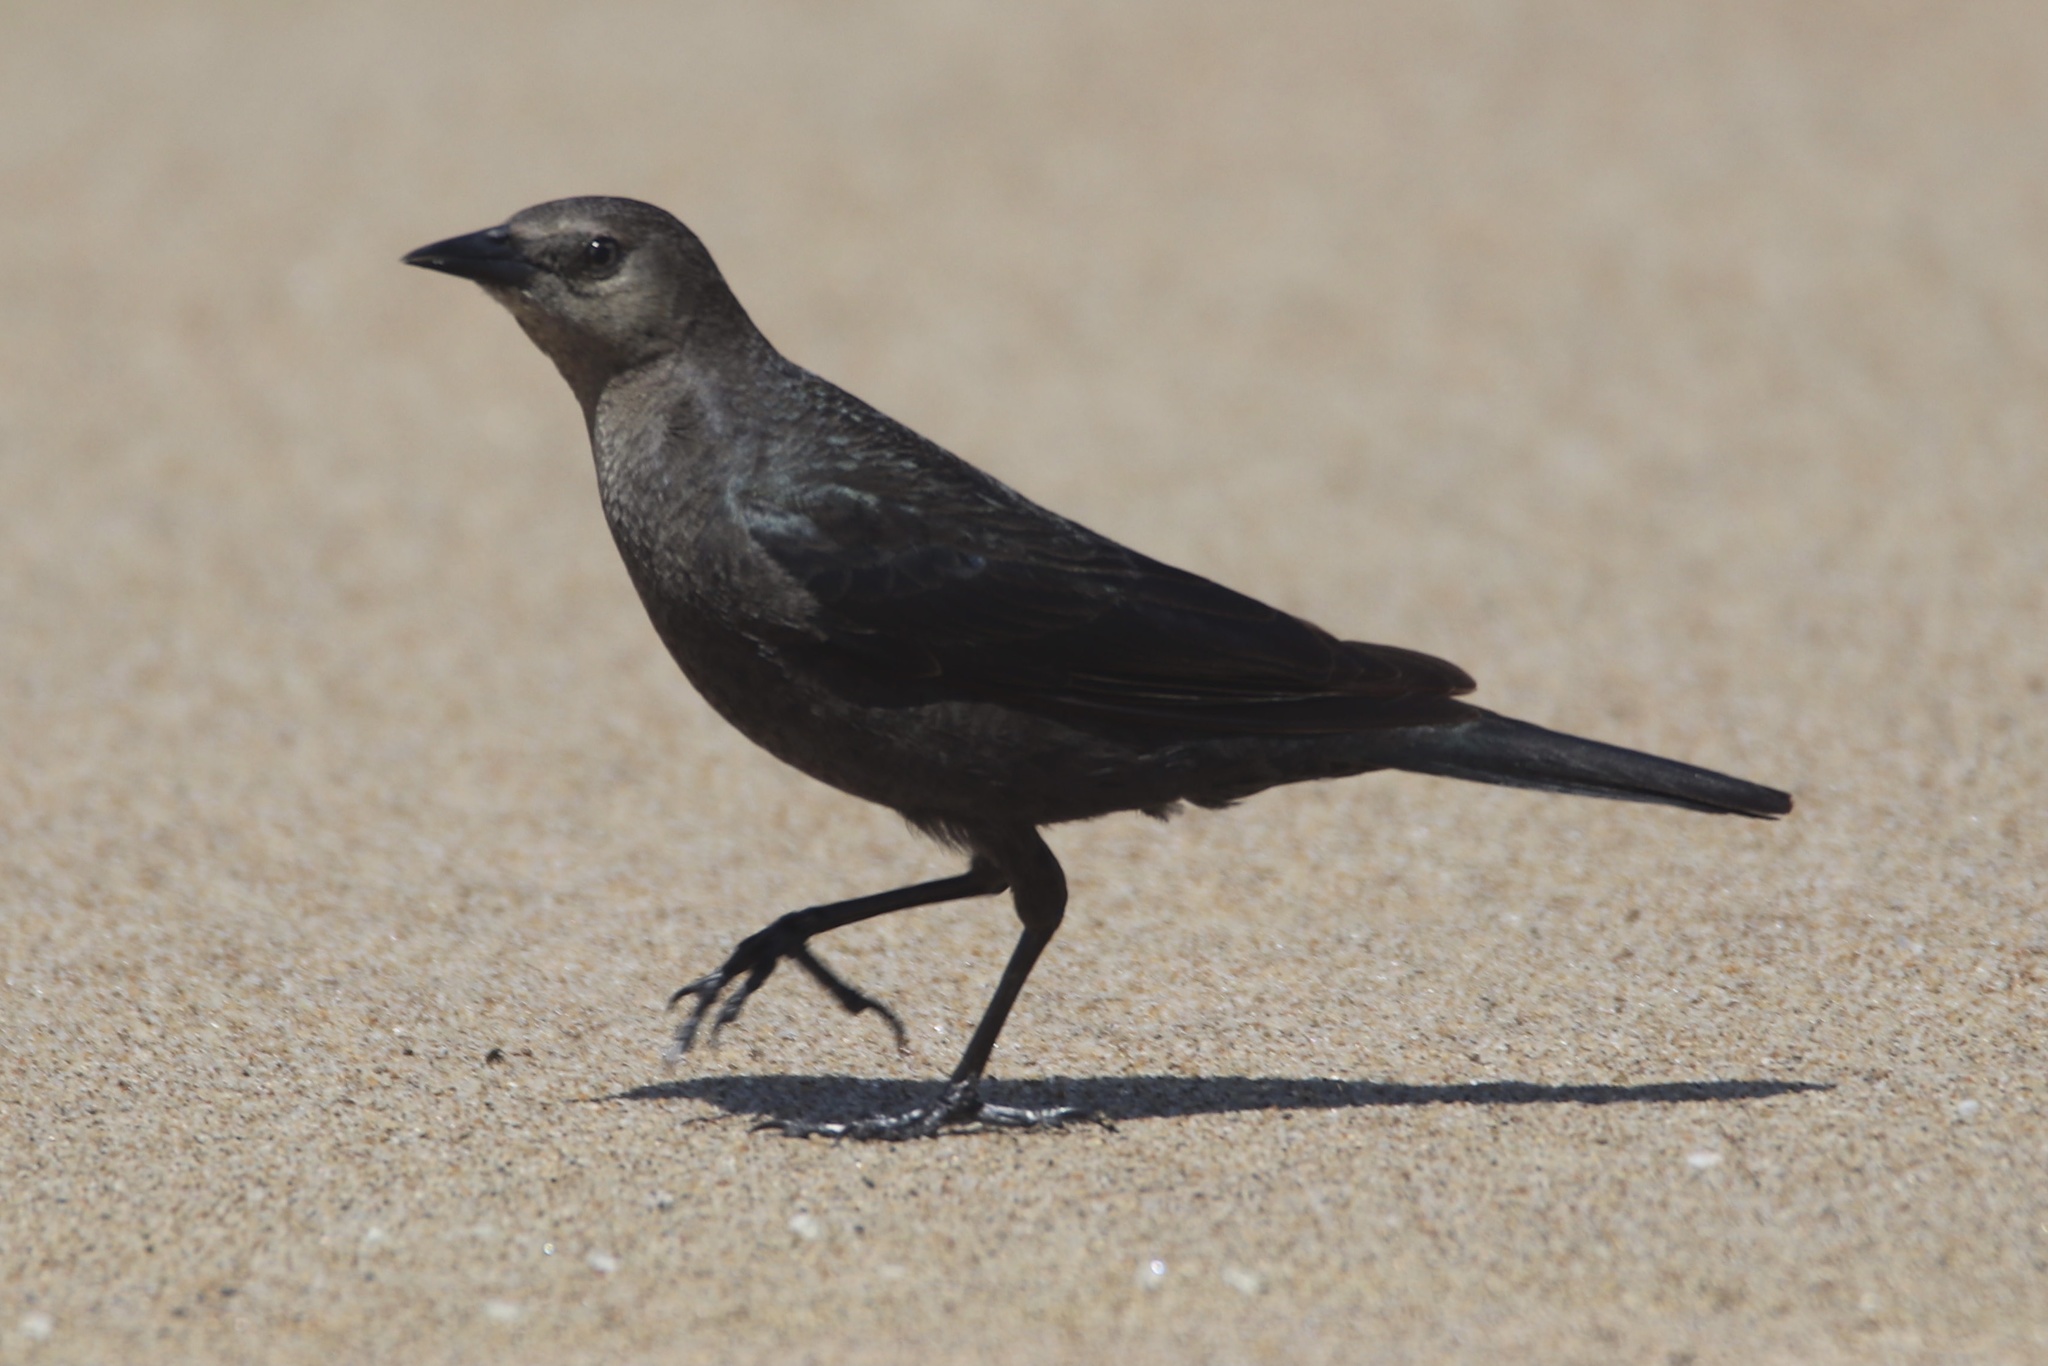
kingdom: Animalia
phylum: Chordata
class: Aves
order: Passeriformes
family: Icteridae
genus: Euphagus
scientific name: Euphagus cyanocephalus
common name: Brewer's blackbird
